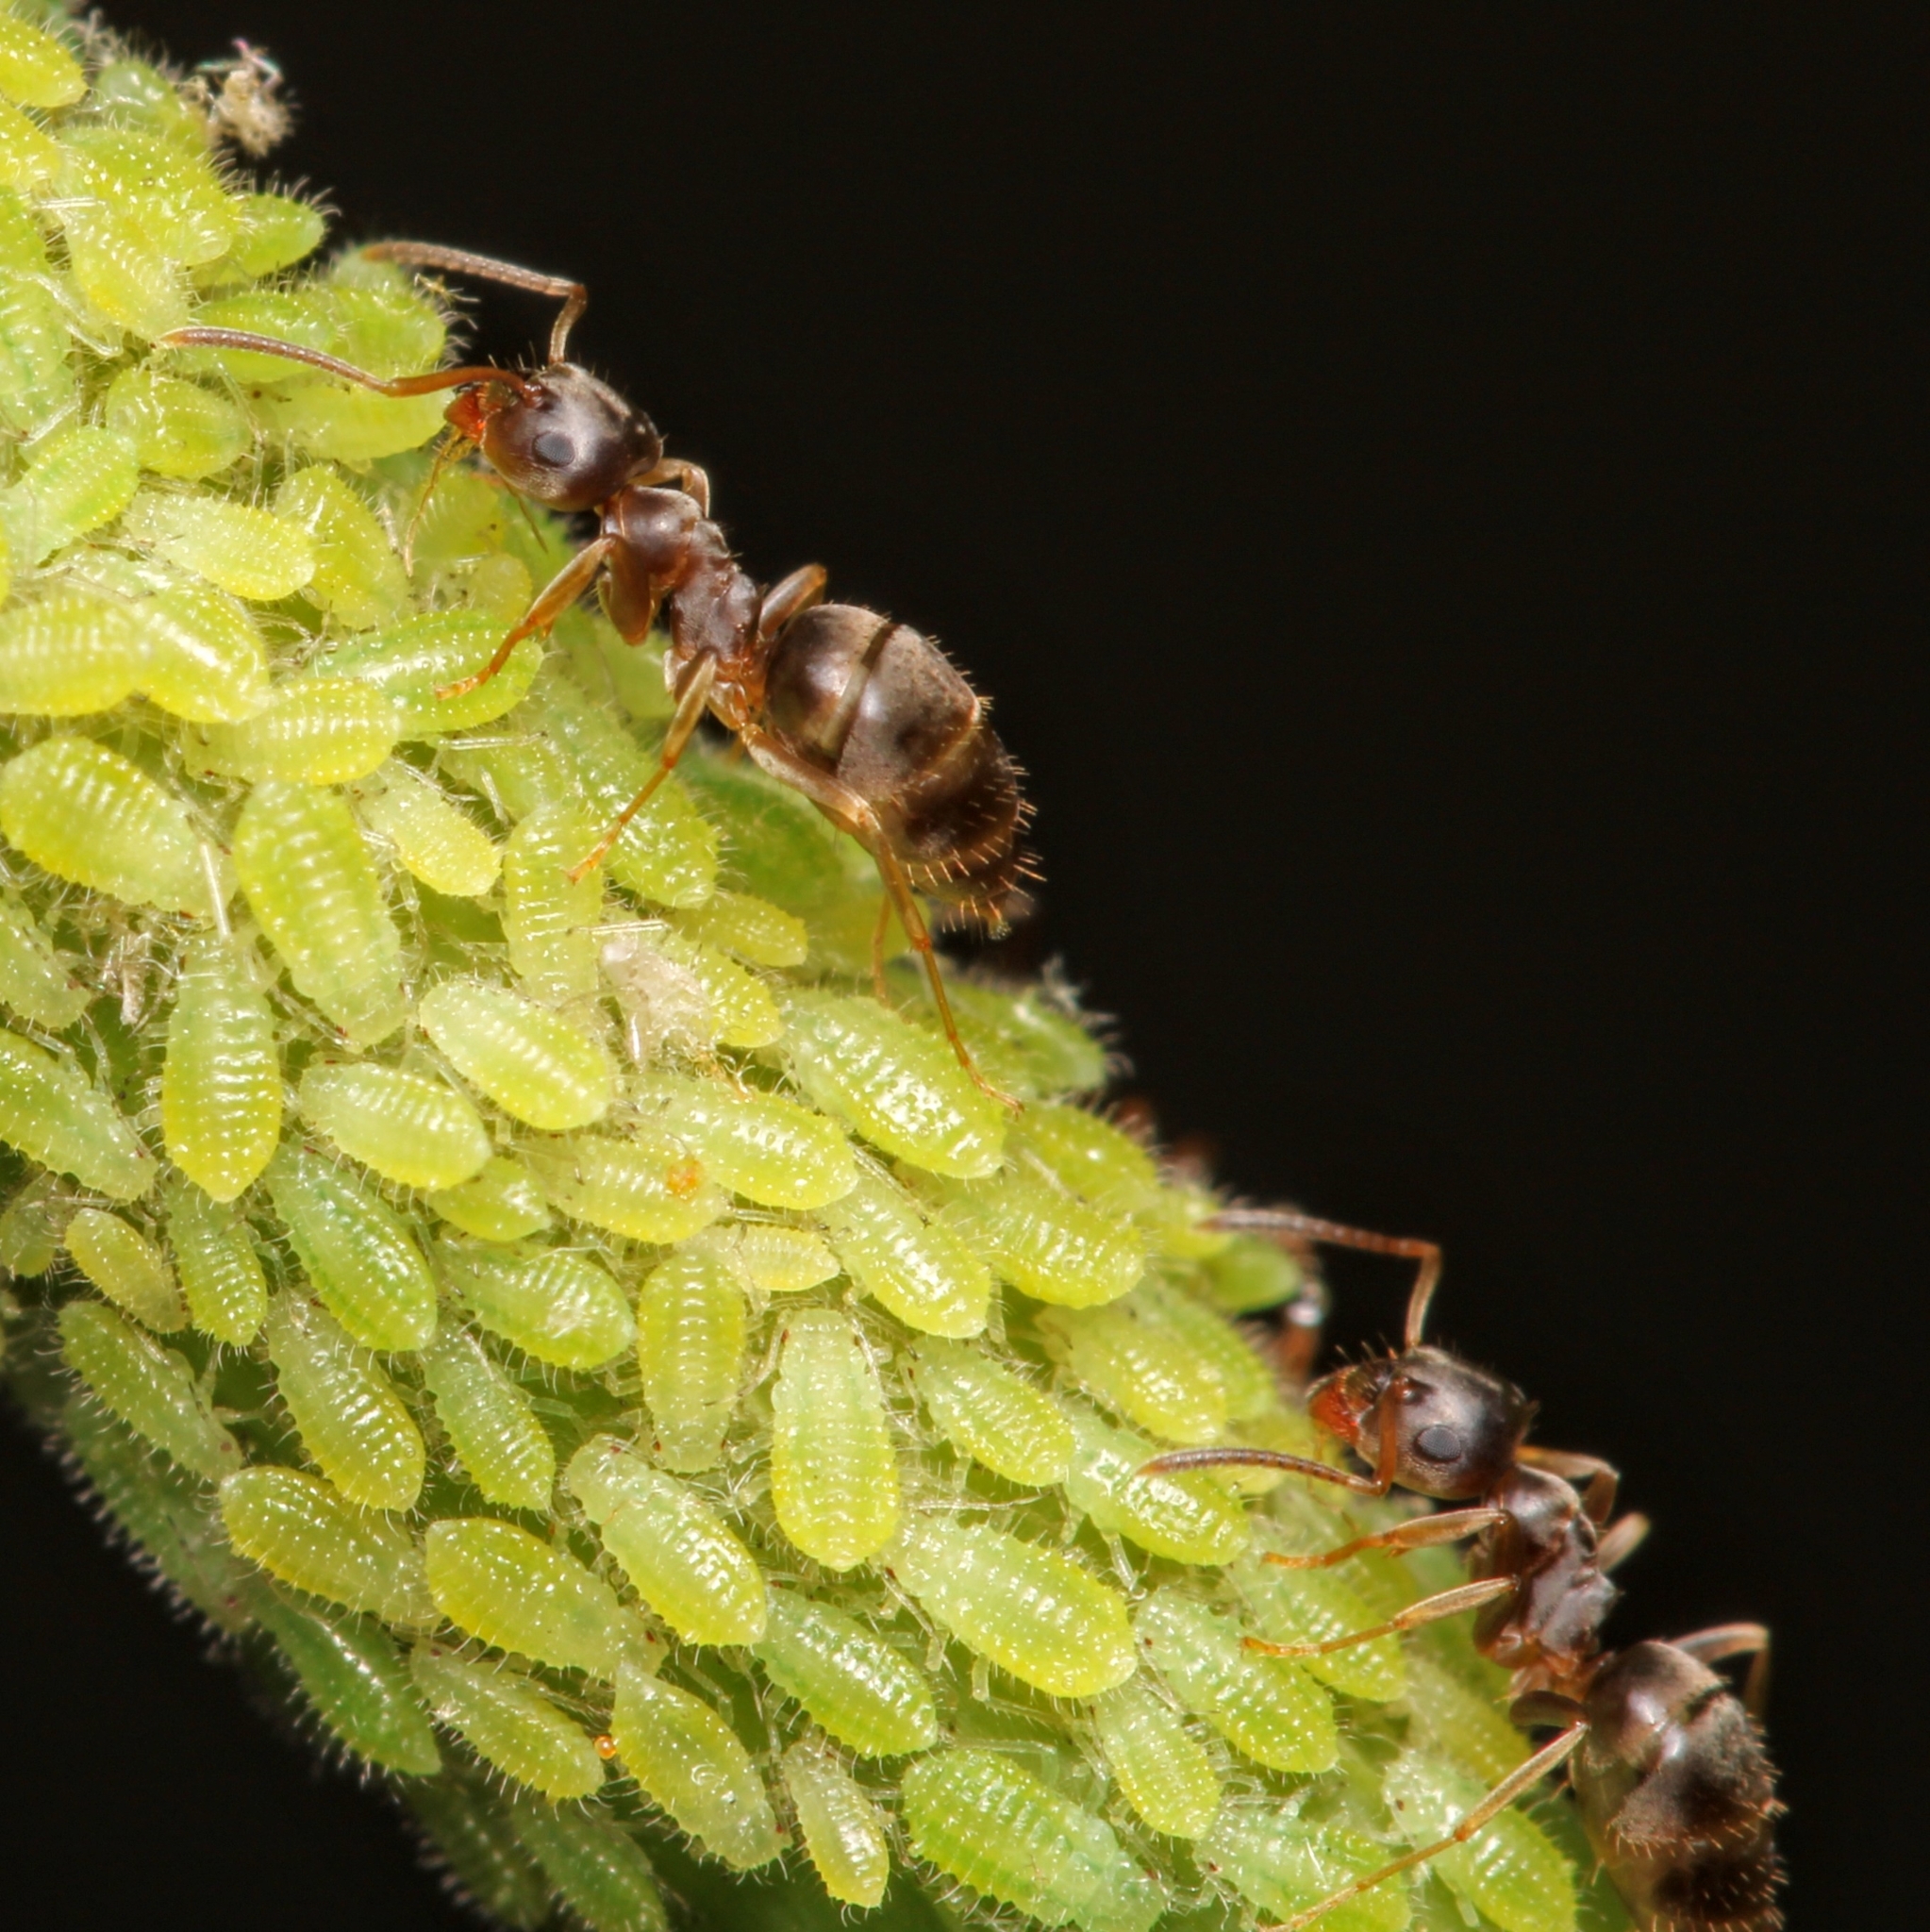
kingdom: Animalia
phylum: Arthropoda
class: Insecta
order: Hymenoptera
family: Formicidae
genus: Lasius
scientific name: Lasius americanus
